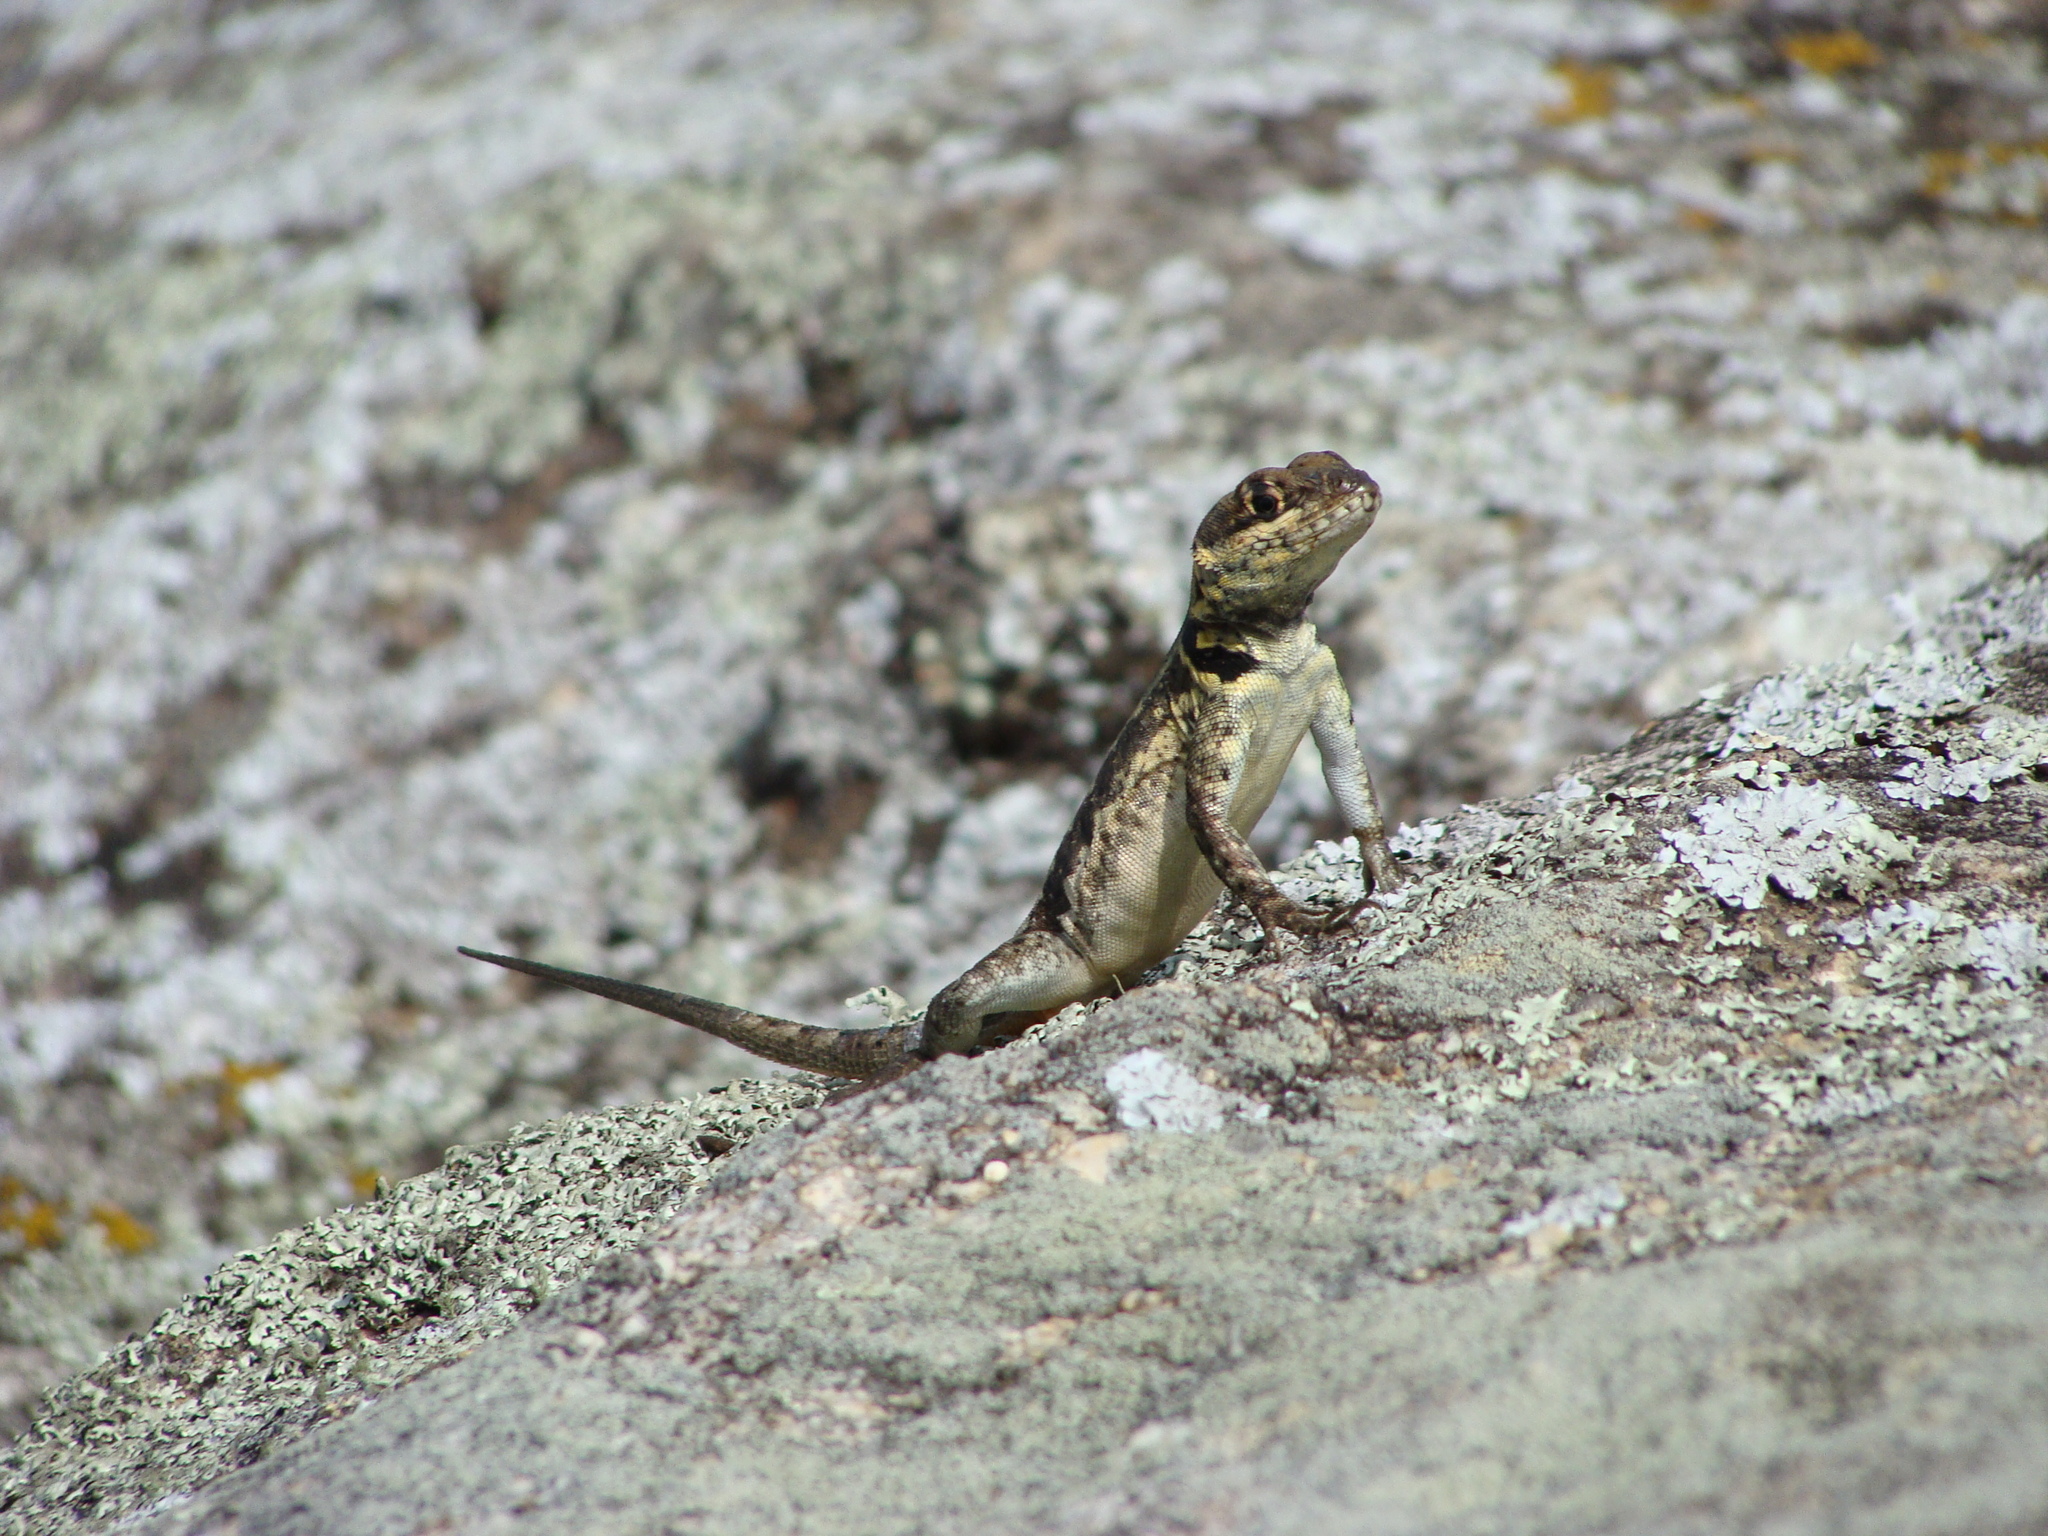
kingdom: Animalia
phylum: Chordata
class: Squamata
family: Tropiduridae
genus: Tropidurus
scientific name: Tropidurus torquatus
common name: Amazon lava lizard
